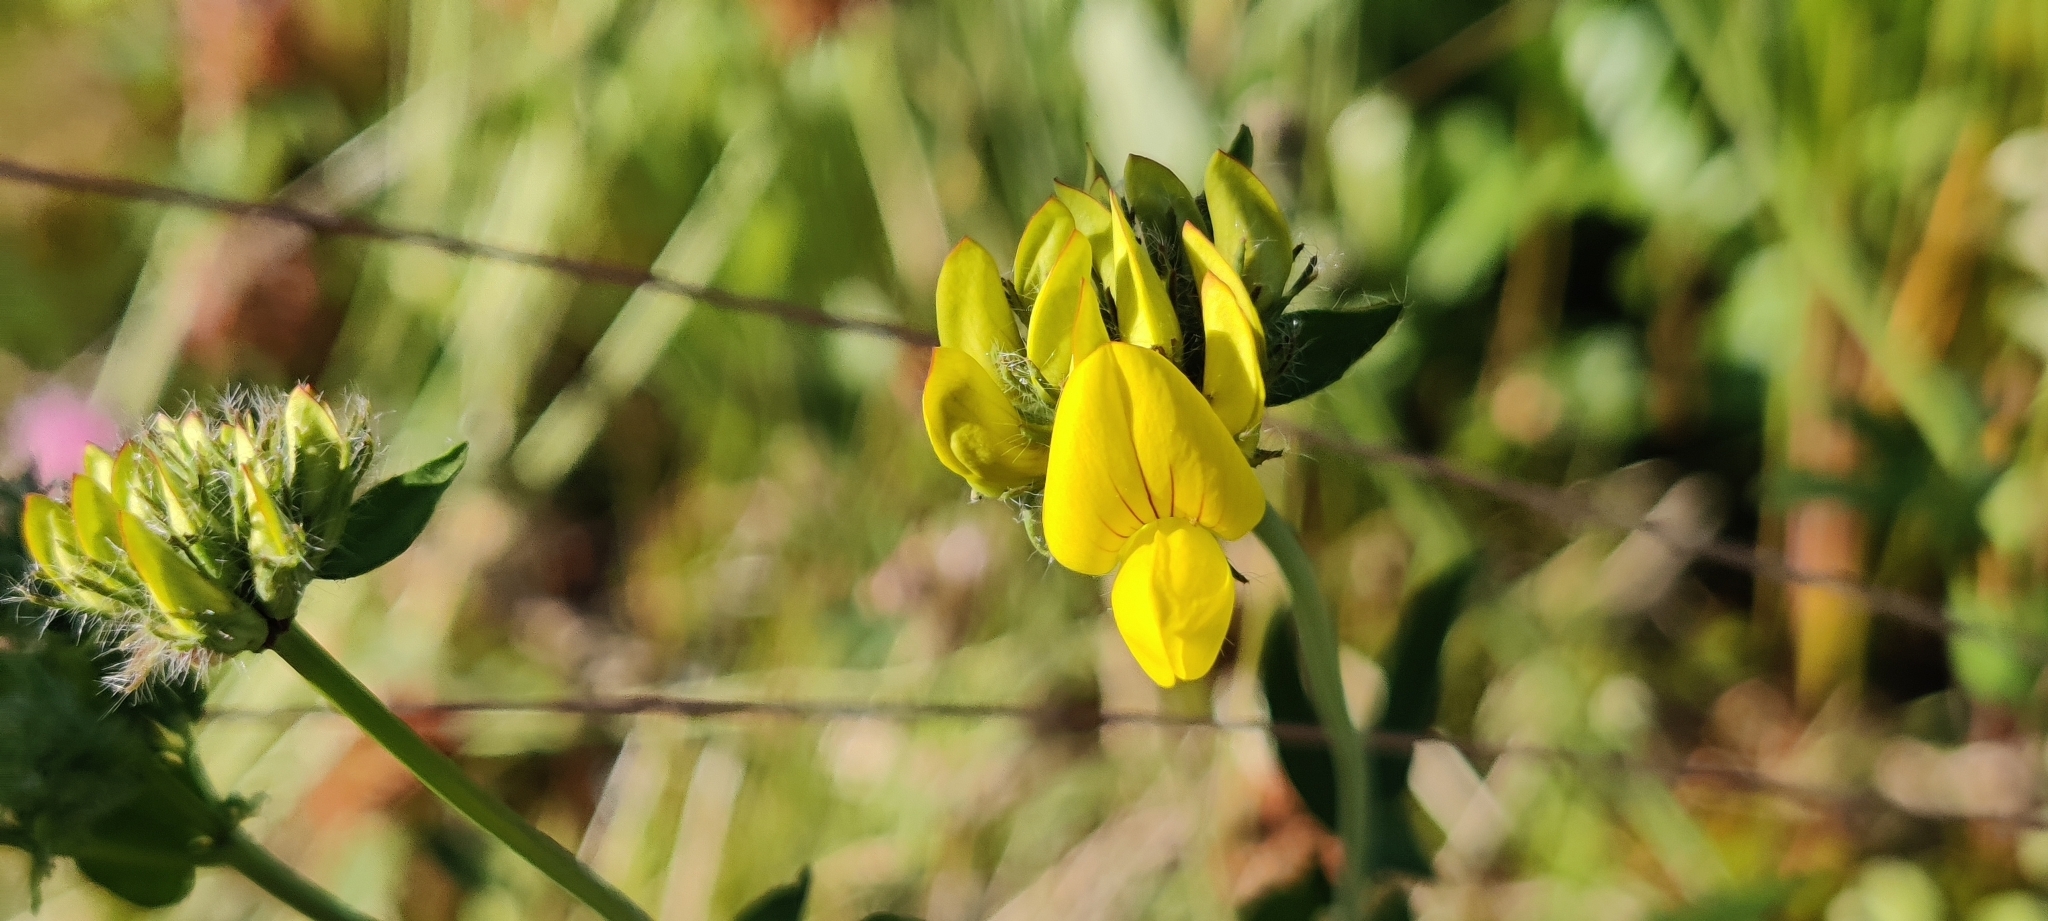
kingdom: Plantae
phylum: Tracheophyta
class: Magnoliopsida
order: Fabales
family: Fabaceae
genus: Lotus
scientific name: Lotus pedunculatus
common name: Greater birdsfoot-trefoil
